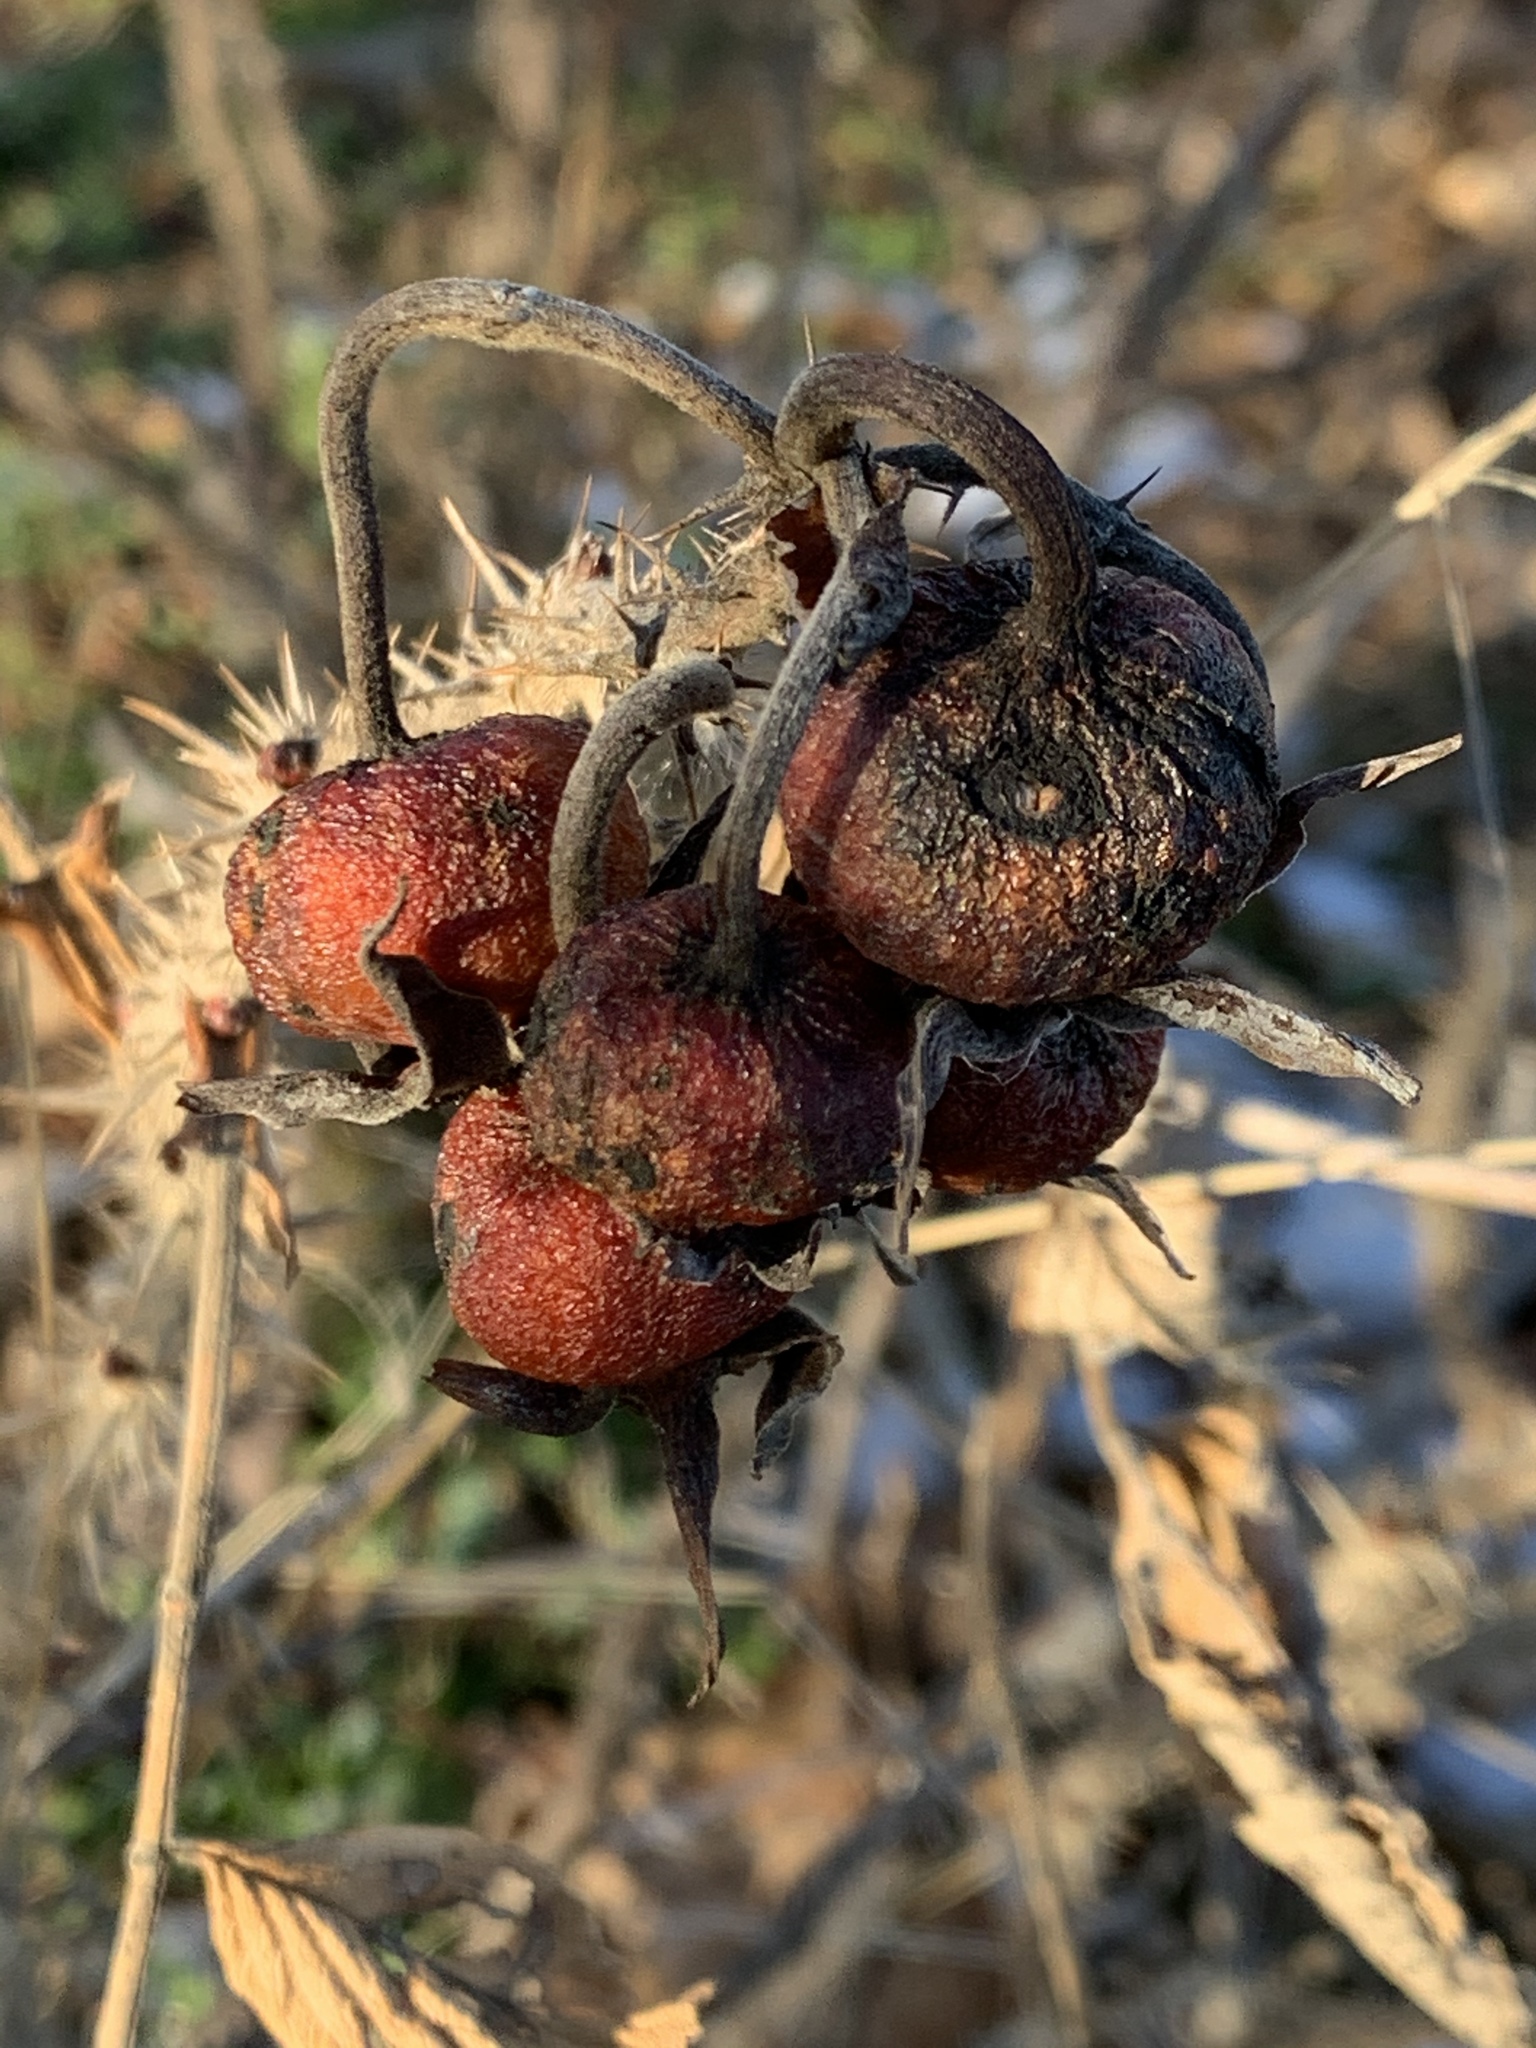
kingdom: Plantae
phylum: Tracheophyta
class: Magnoliopsida
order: Rosales
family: Rosaceae
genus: Rosa
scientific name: Rosa rugosa
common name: Japanese rose
